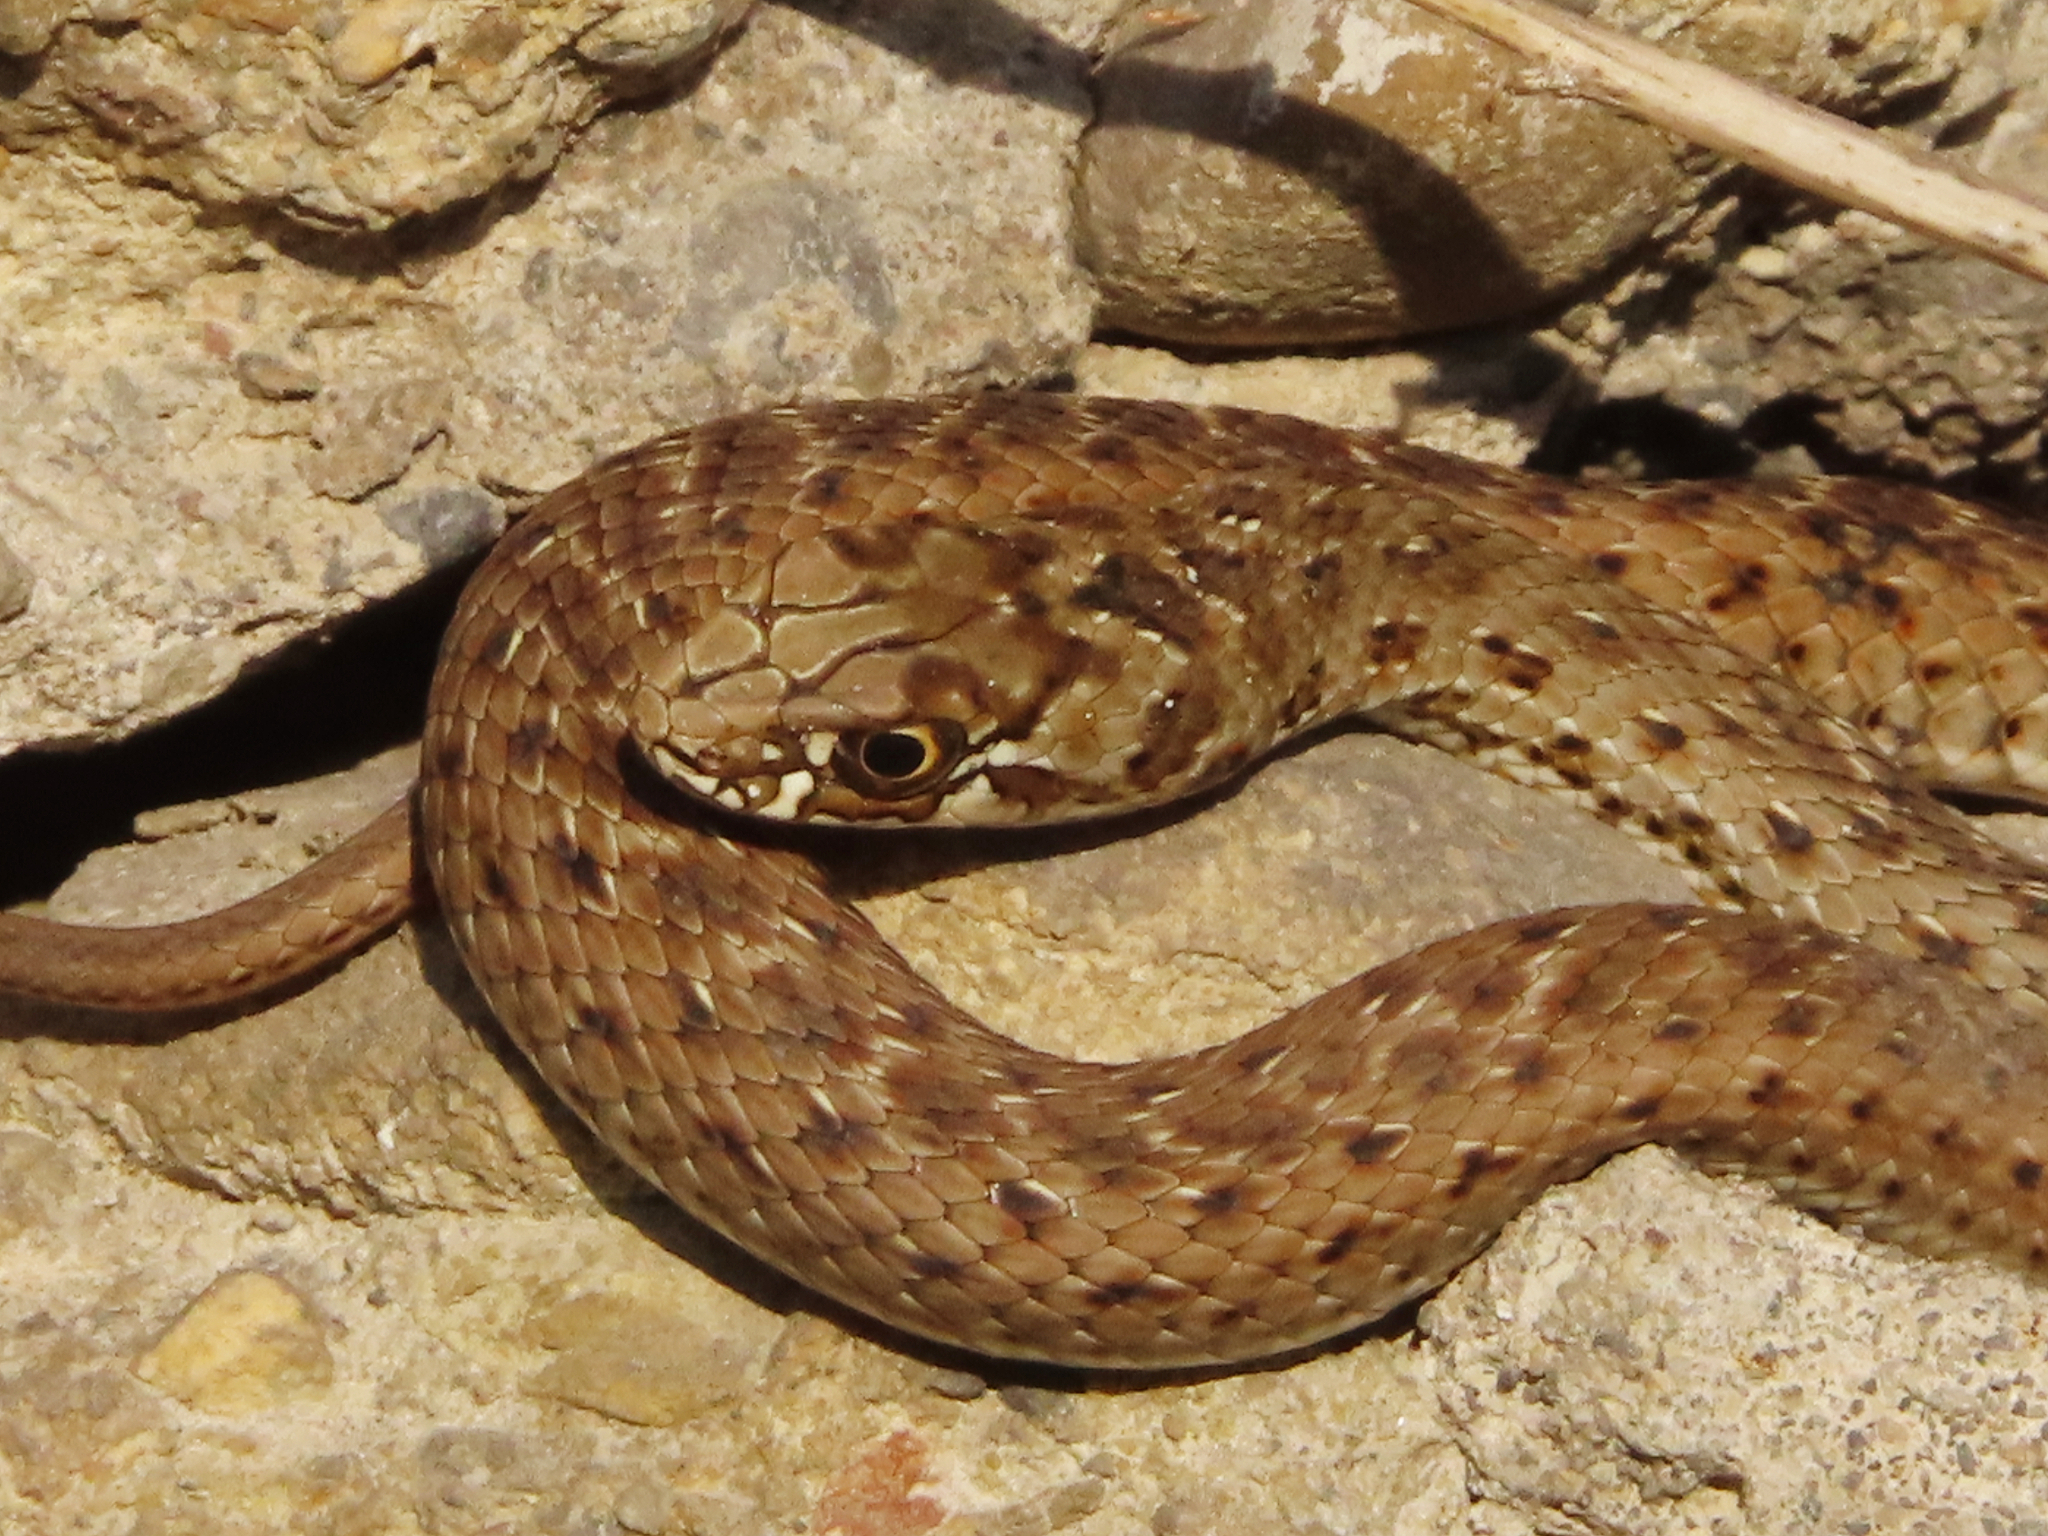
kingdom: Animalia
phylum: Chordata
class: Squamata
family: Psammophiidae
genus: Malpolon
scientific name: Malpolon monspessulanus
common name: Montpellier snake
